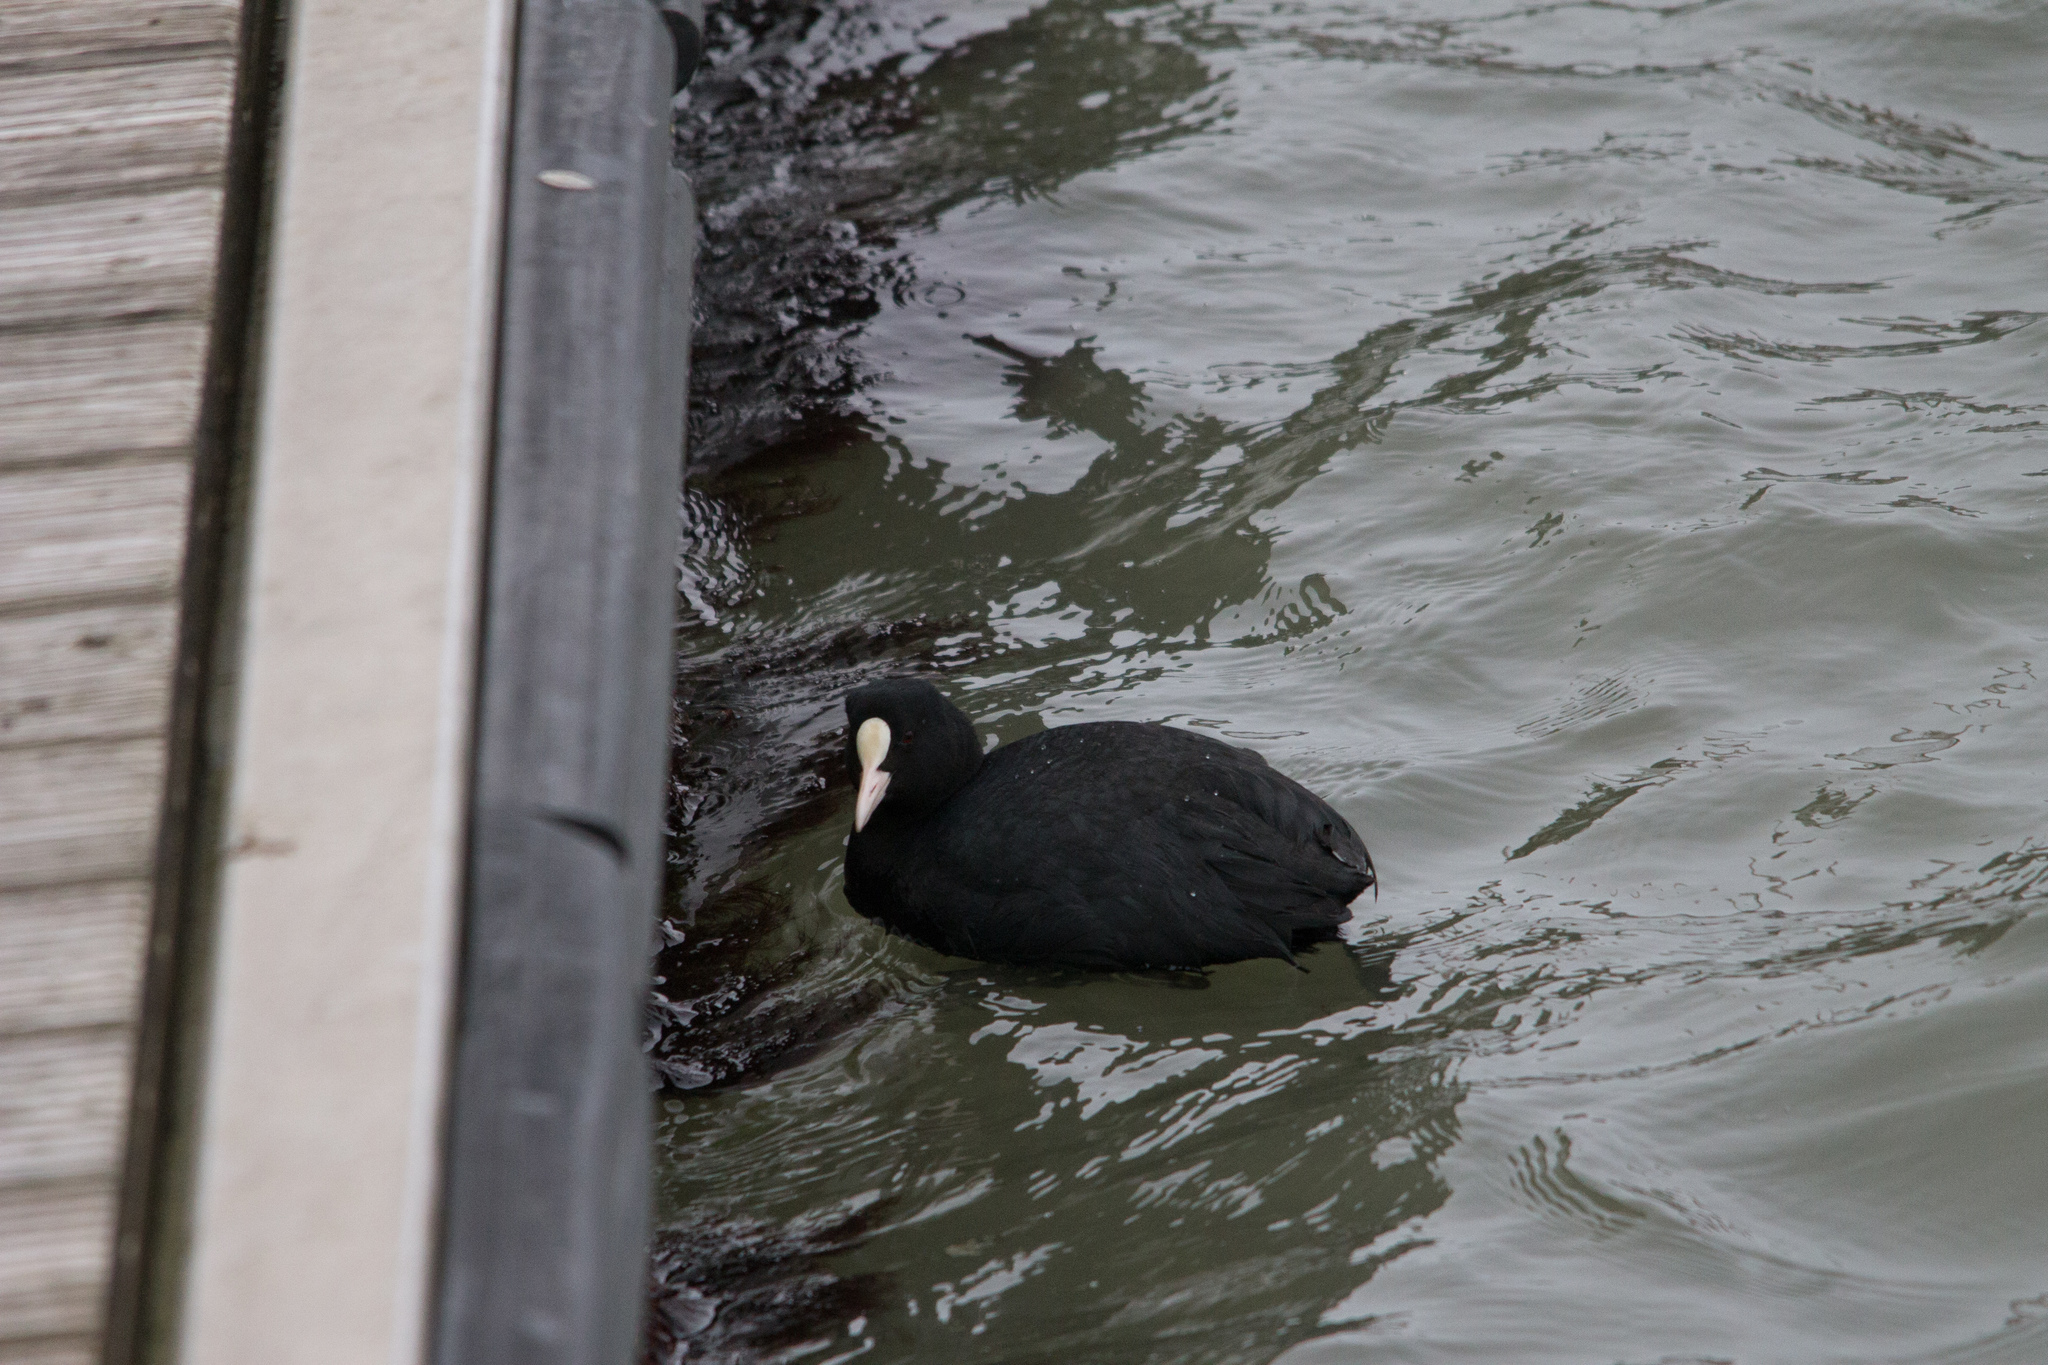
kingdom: Animalia
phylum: Chordata
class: Aves
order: Gruiformes
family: Rallidae
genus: Fulica
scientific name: Fulica atra
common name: Eurasian coot
